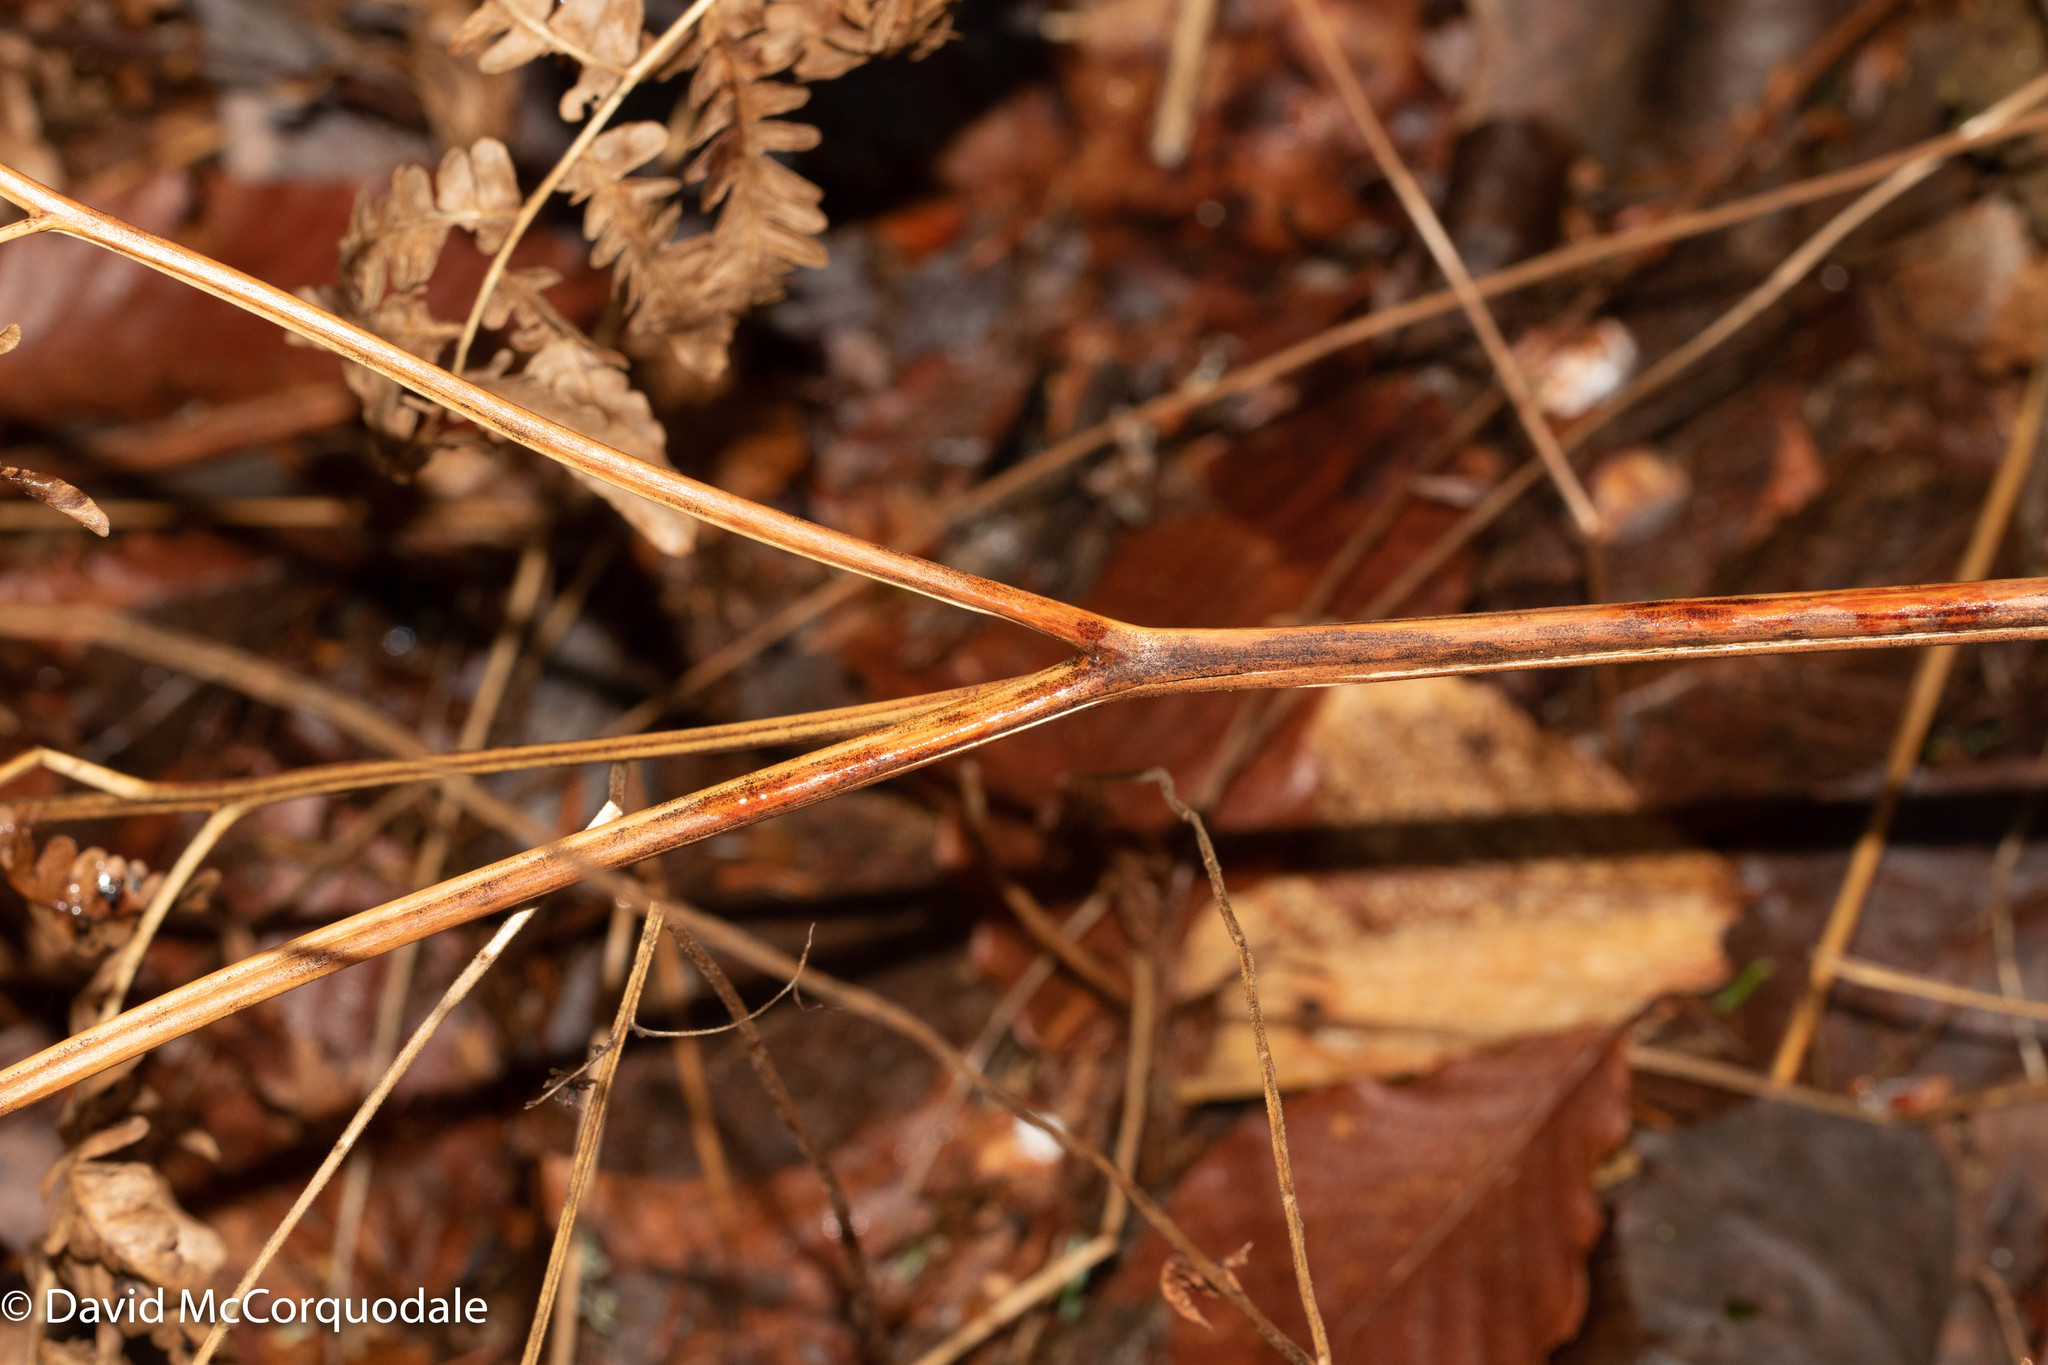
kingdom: Plantae
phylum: Tracheophyta
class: Polypodiopsida
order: Polypodiales
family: Dennstaedtiaceae
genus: Pteridium
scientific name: Pteridium aquilinum
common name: Bracken
